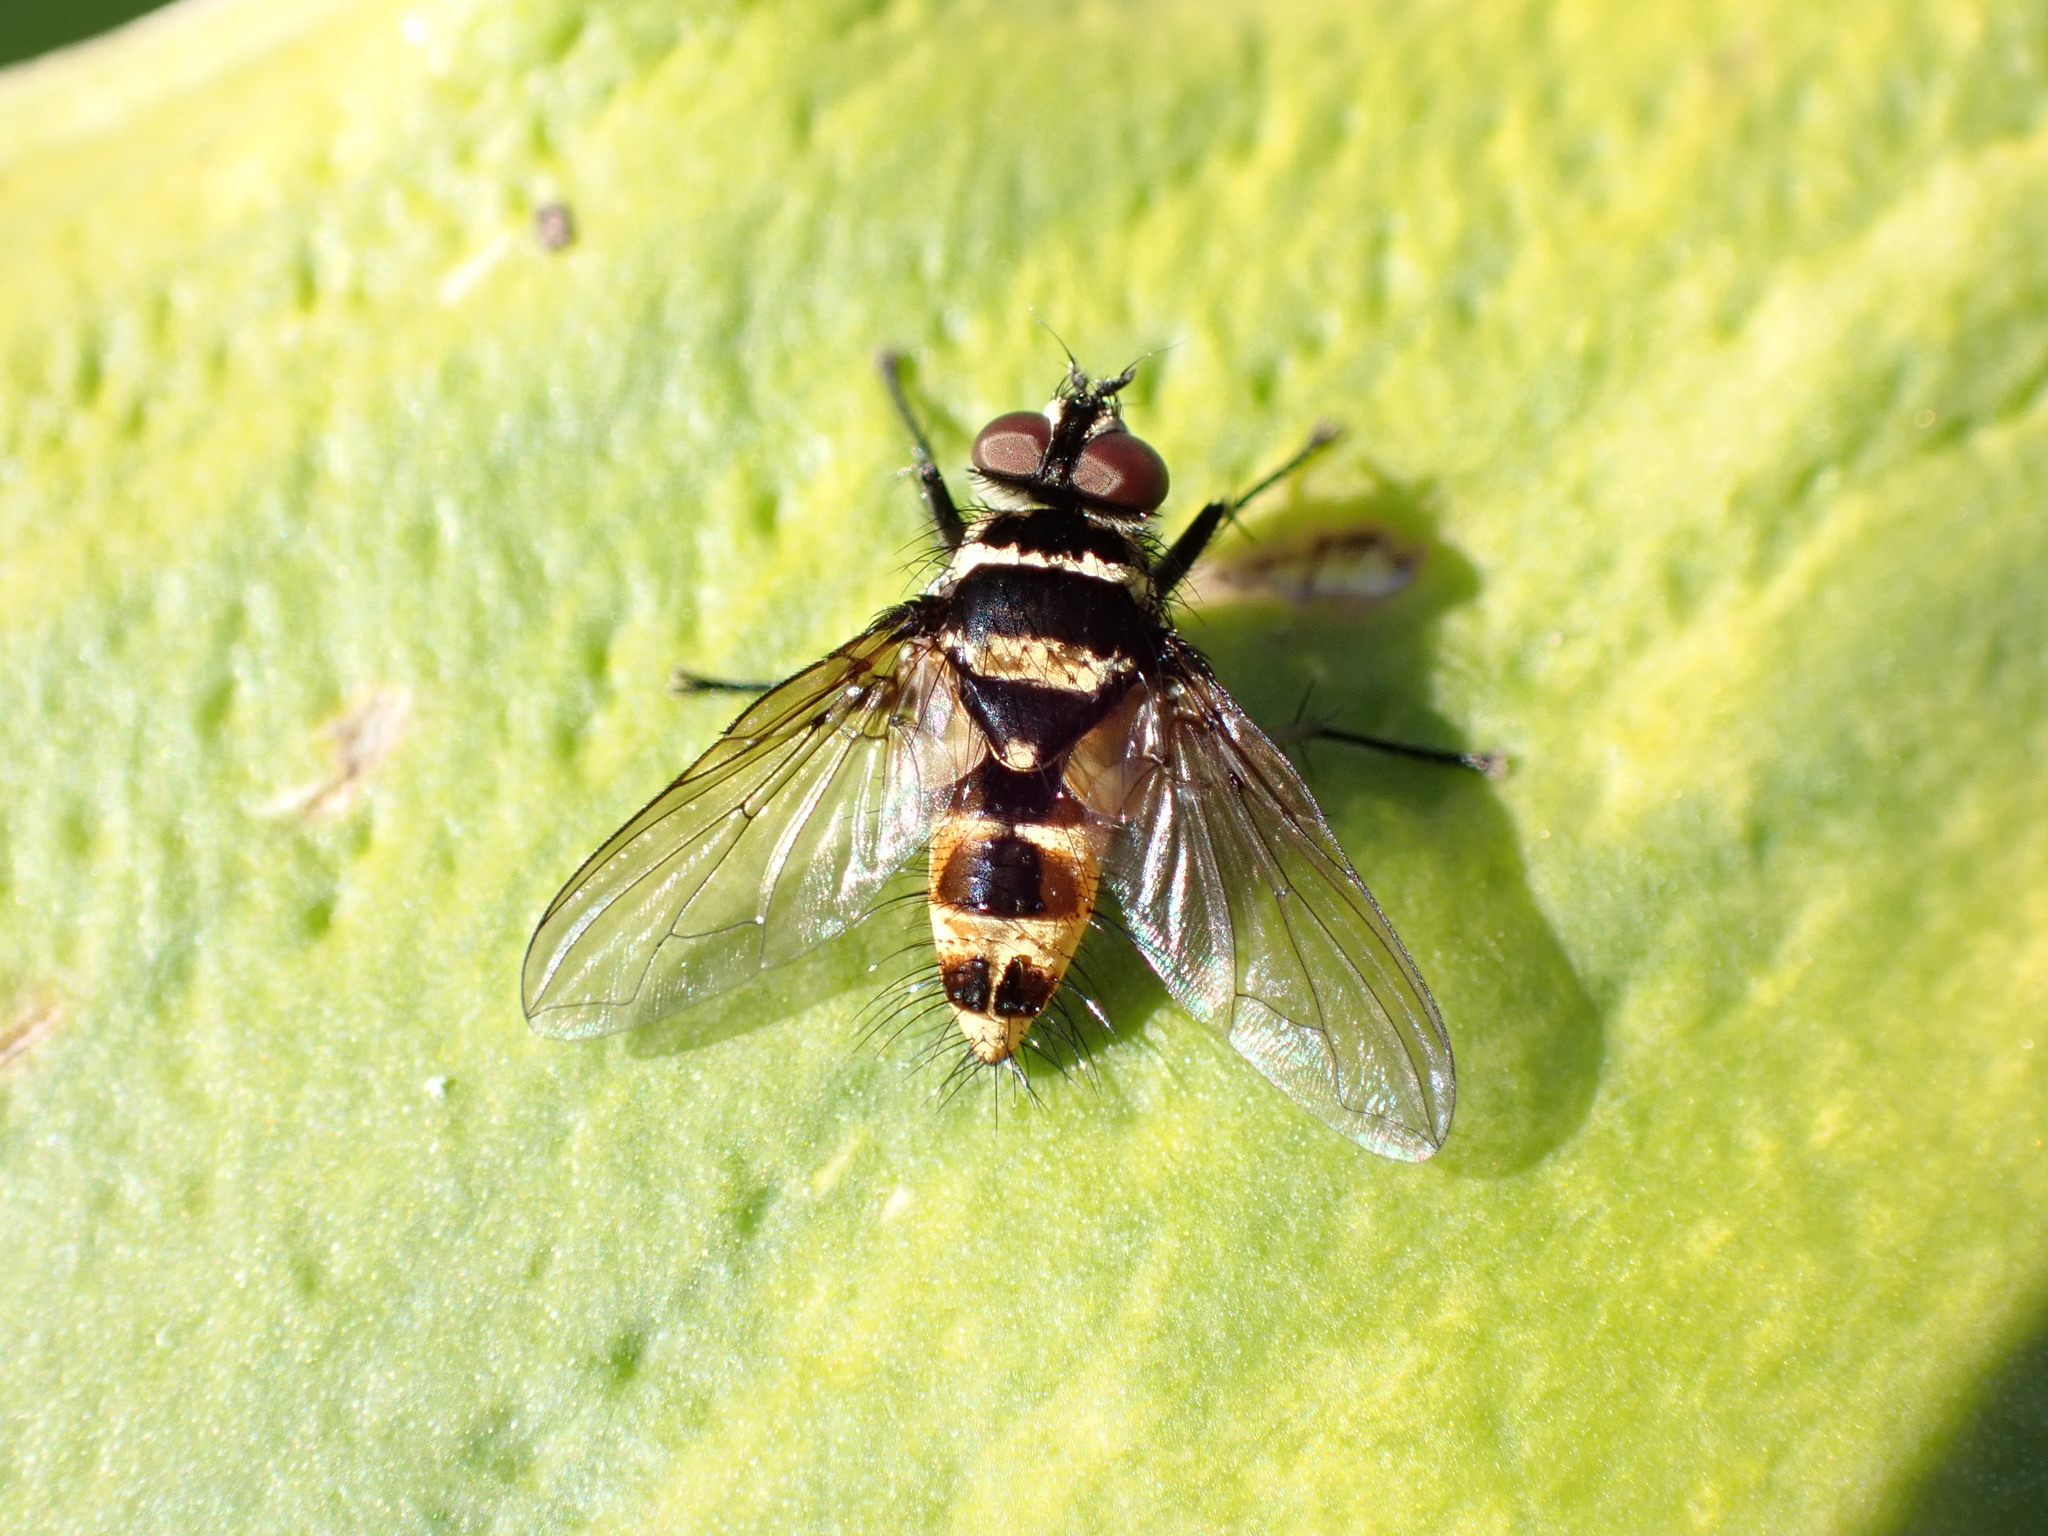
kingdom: Animalia
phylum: Arthropoda
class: Insecta
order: Diptera
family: Tachinidae
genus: Trigonospila
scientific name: Trigonospila brevifacies
